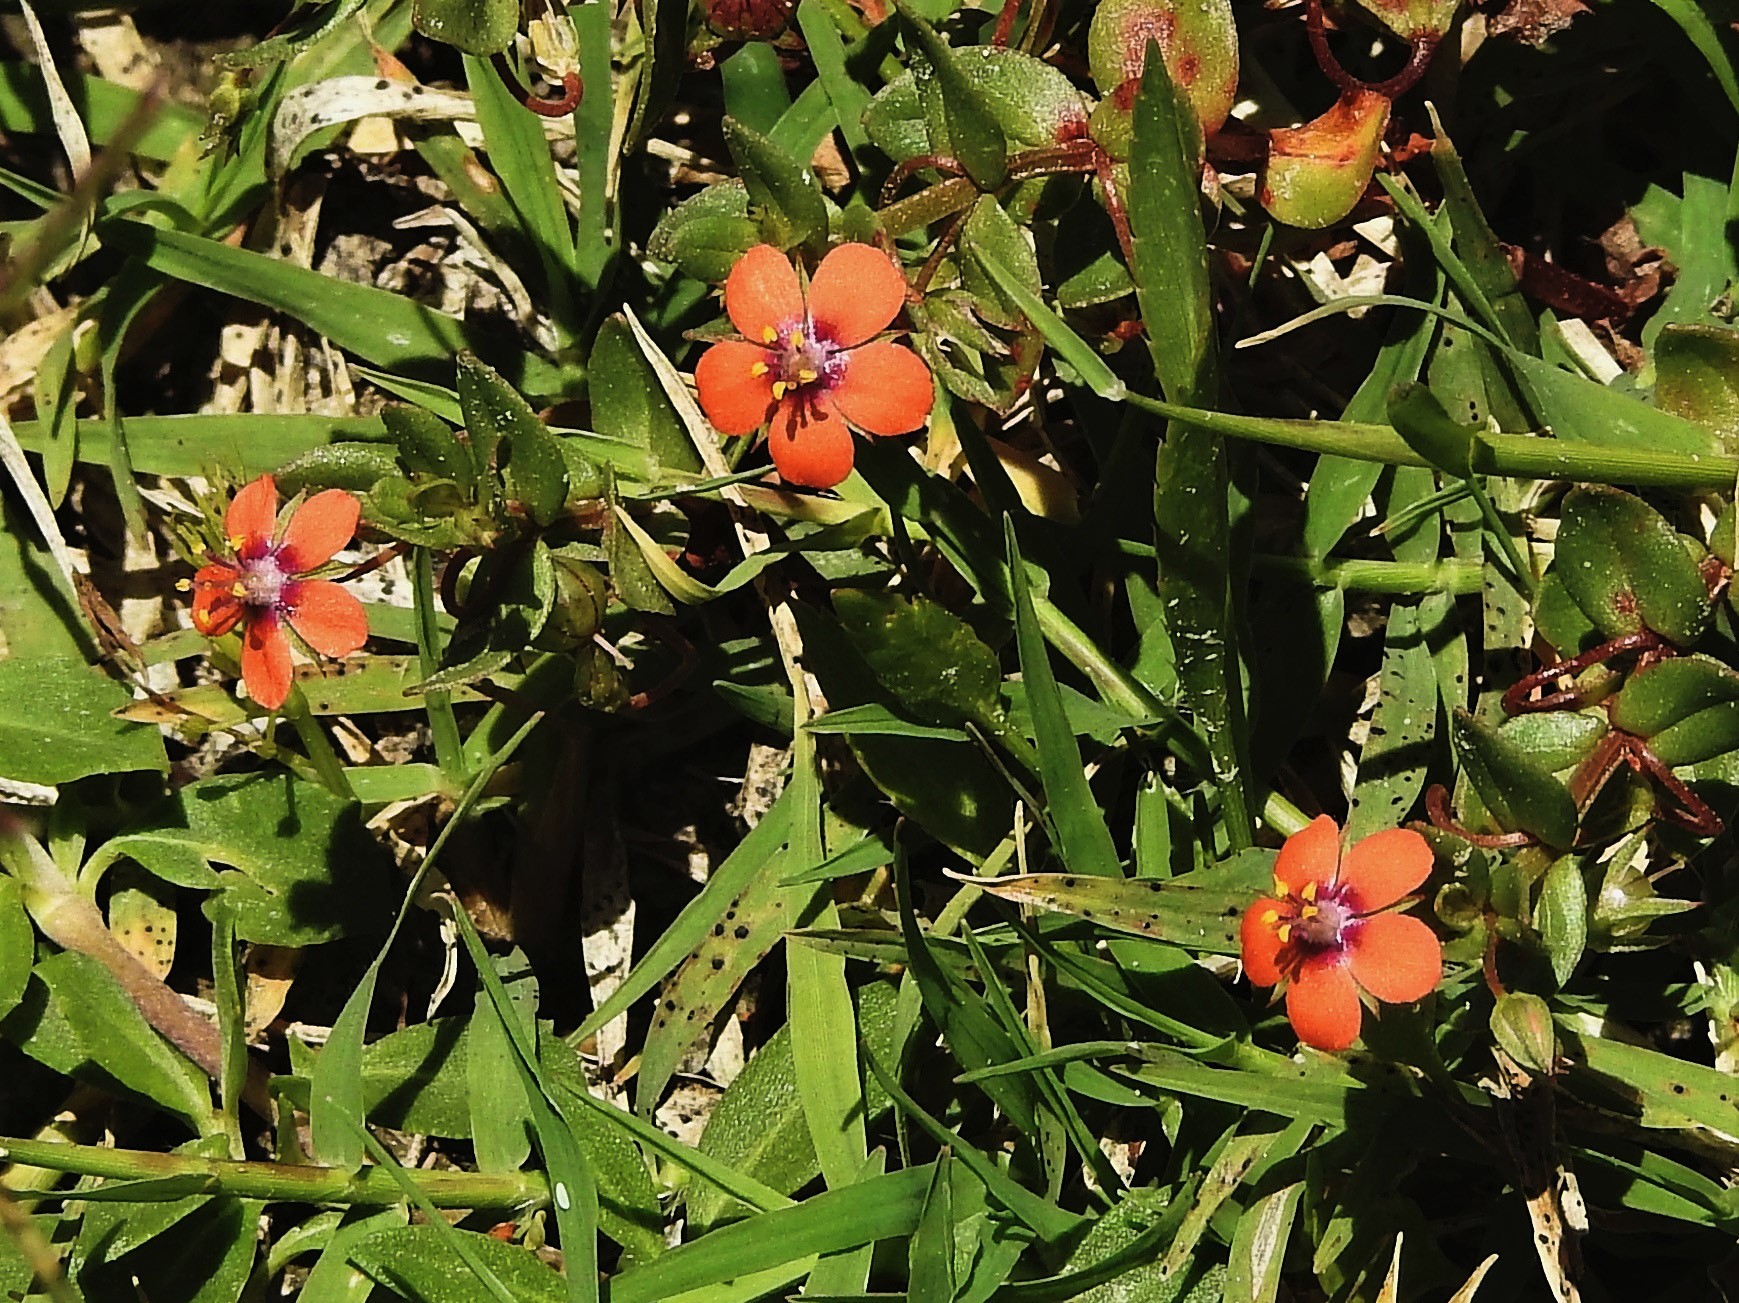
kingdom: Plantae
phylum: Tracheophyta
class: Magnoliopsida
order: Ericales
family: Primulaceae
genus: Lysimachia
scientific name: Lysimachia arvensis
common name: Scarlet pimpernel
